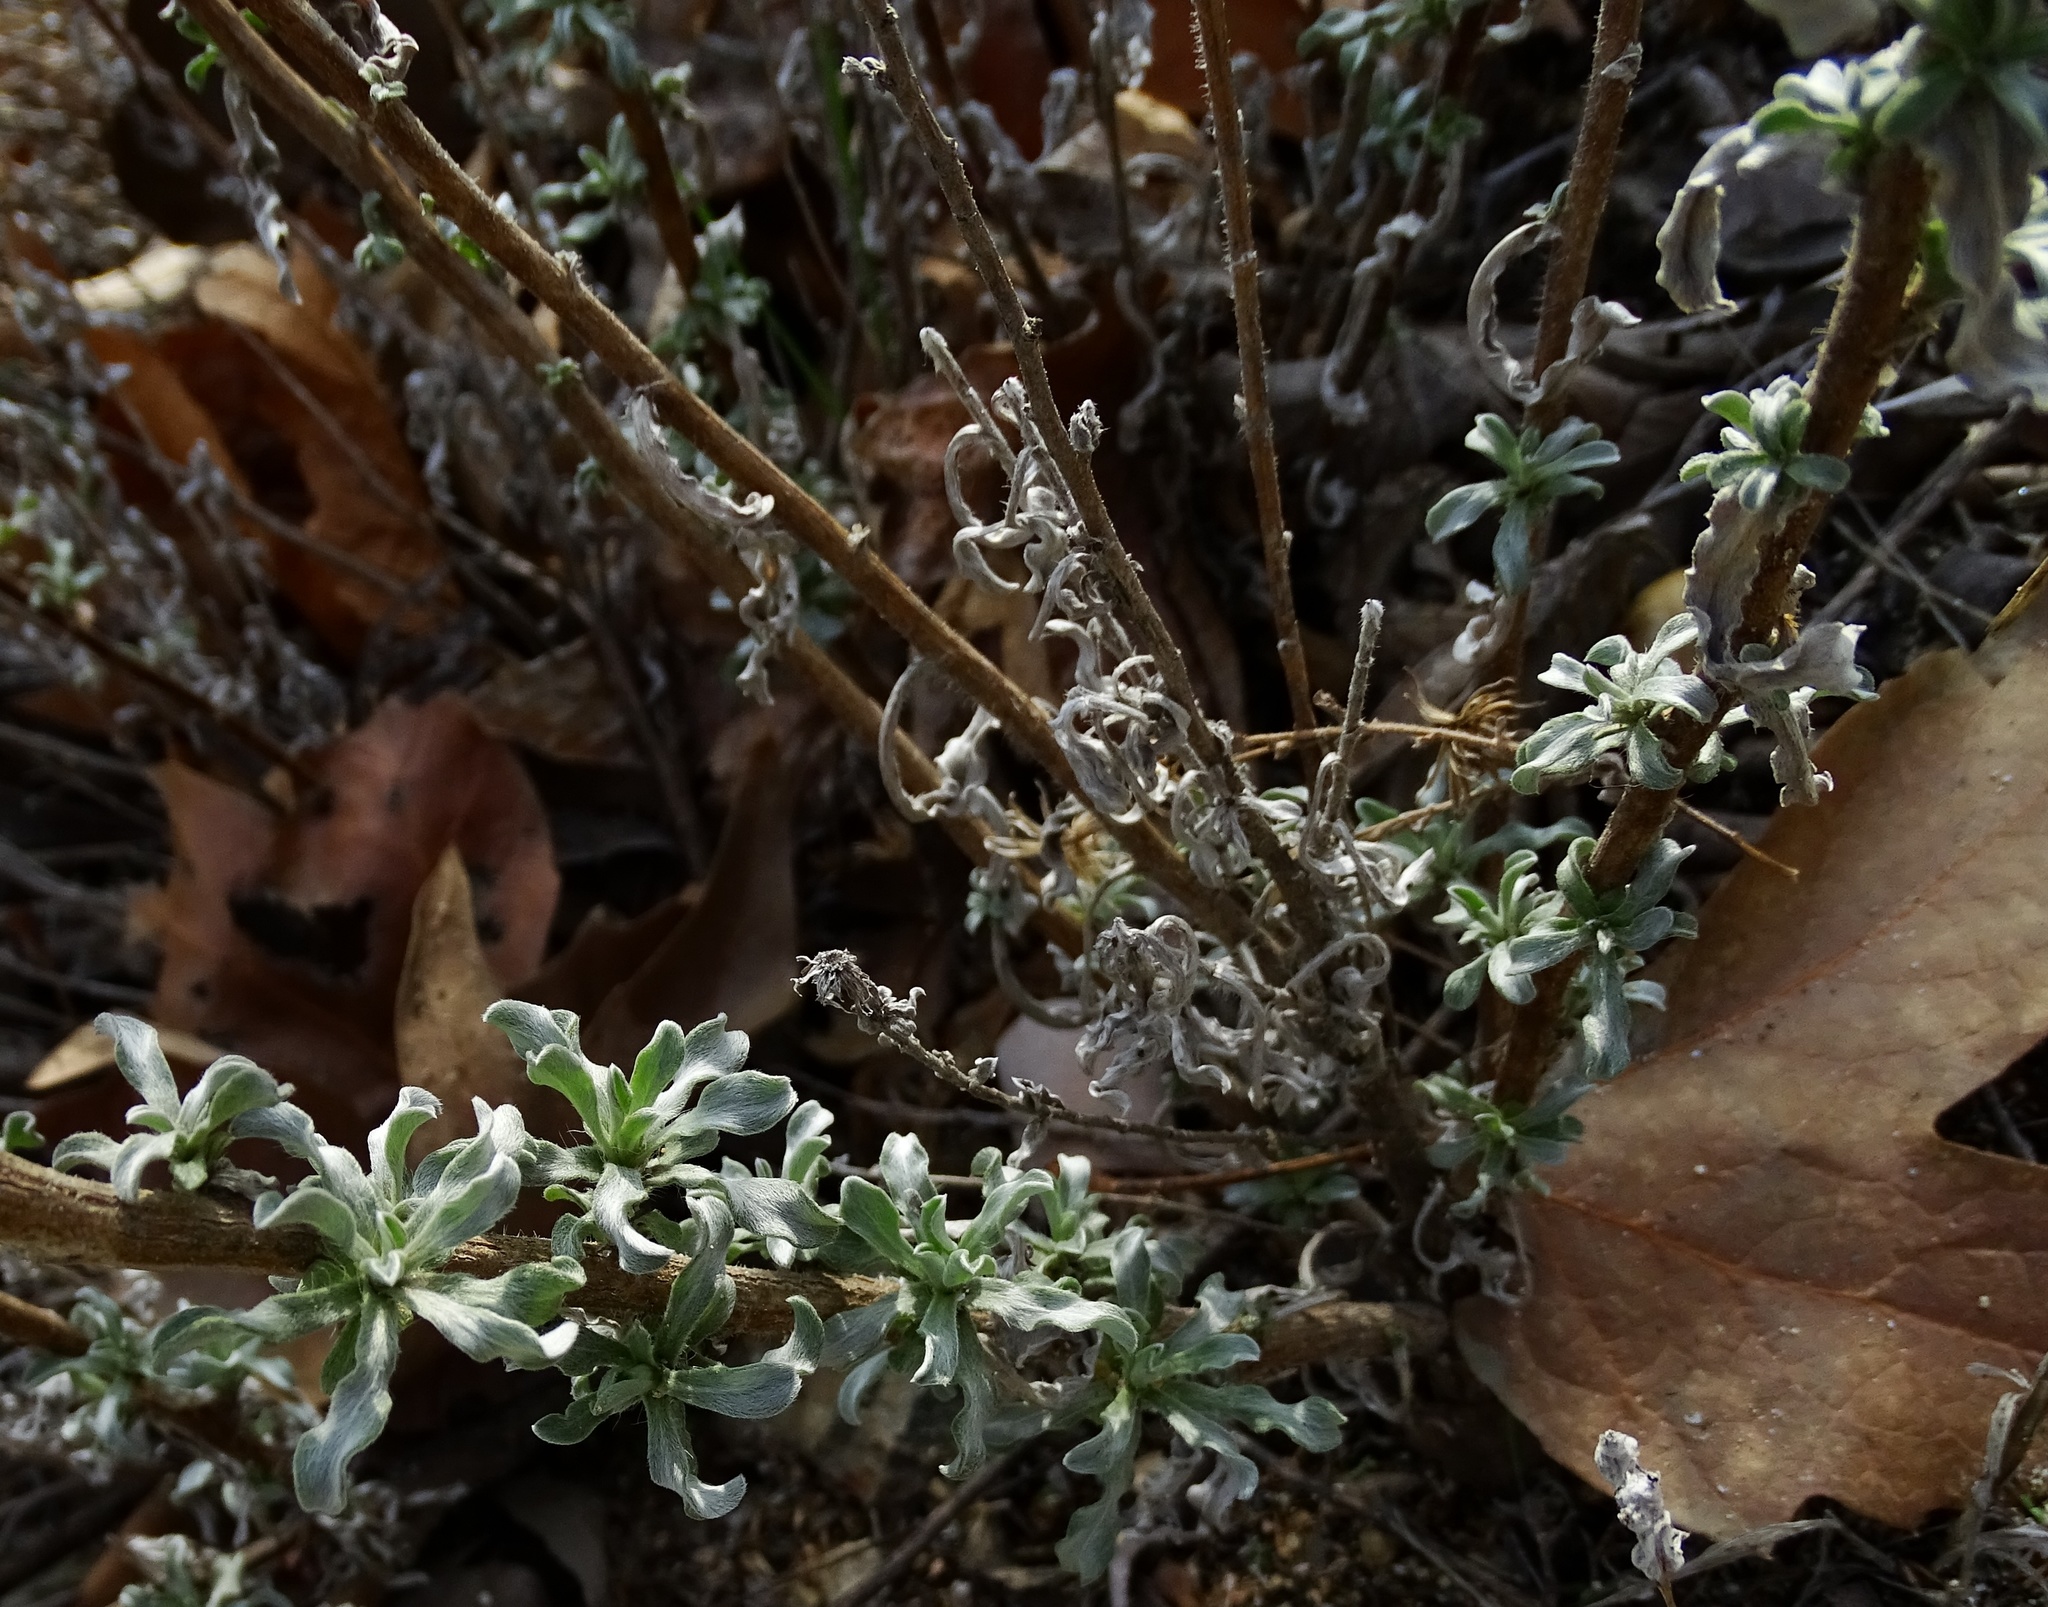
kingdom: Plantae
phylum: Tracheophyta
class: Magnoliopsida
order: Asterales
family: Asteraceae
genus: Heterotheca
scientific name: Heterotheca sessiliflora
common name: Sessile-flower golden-aster
